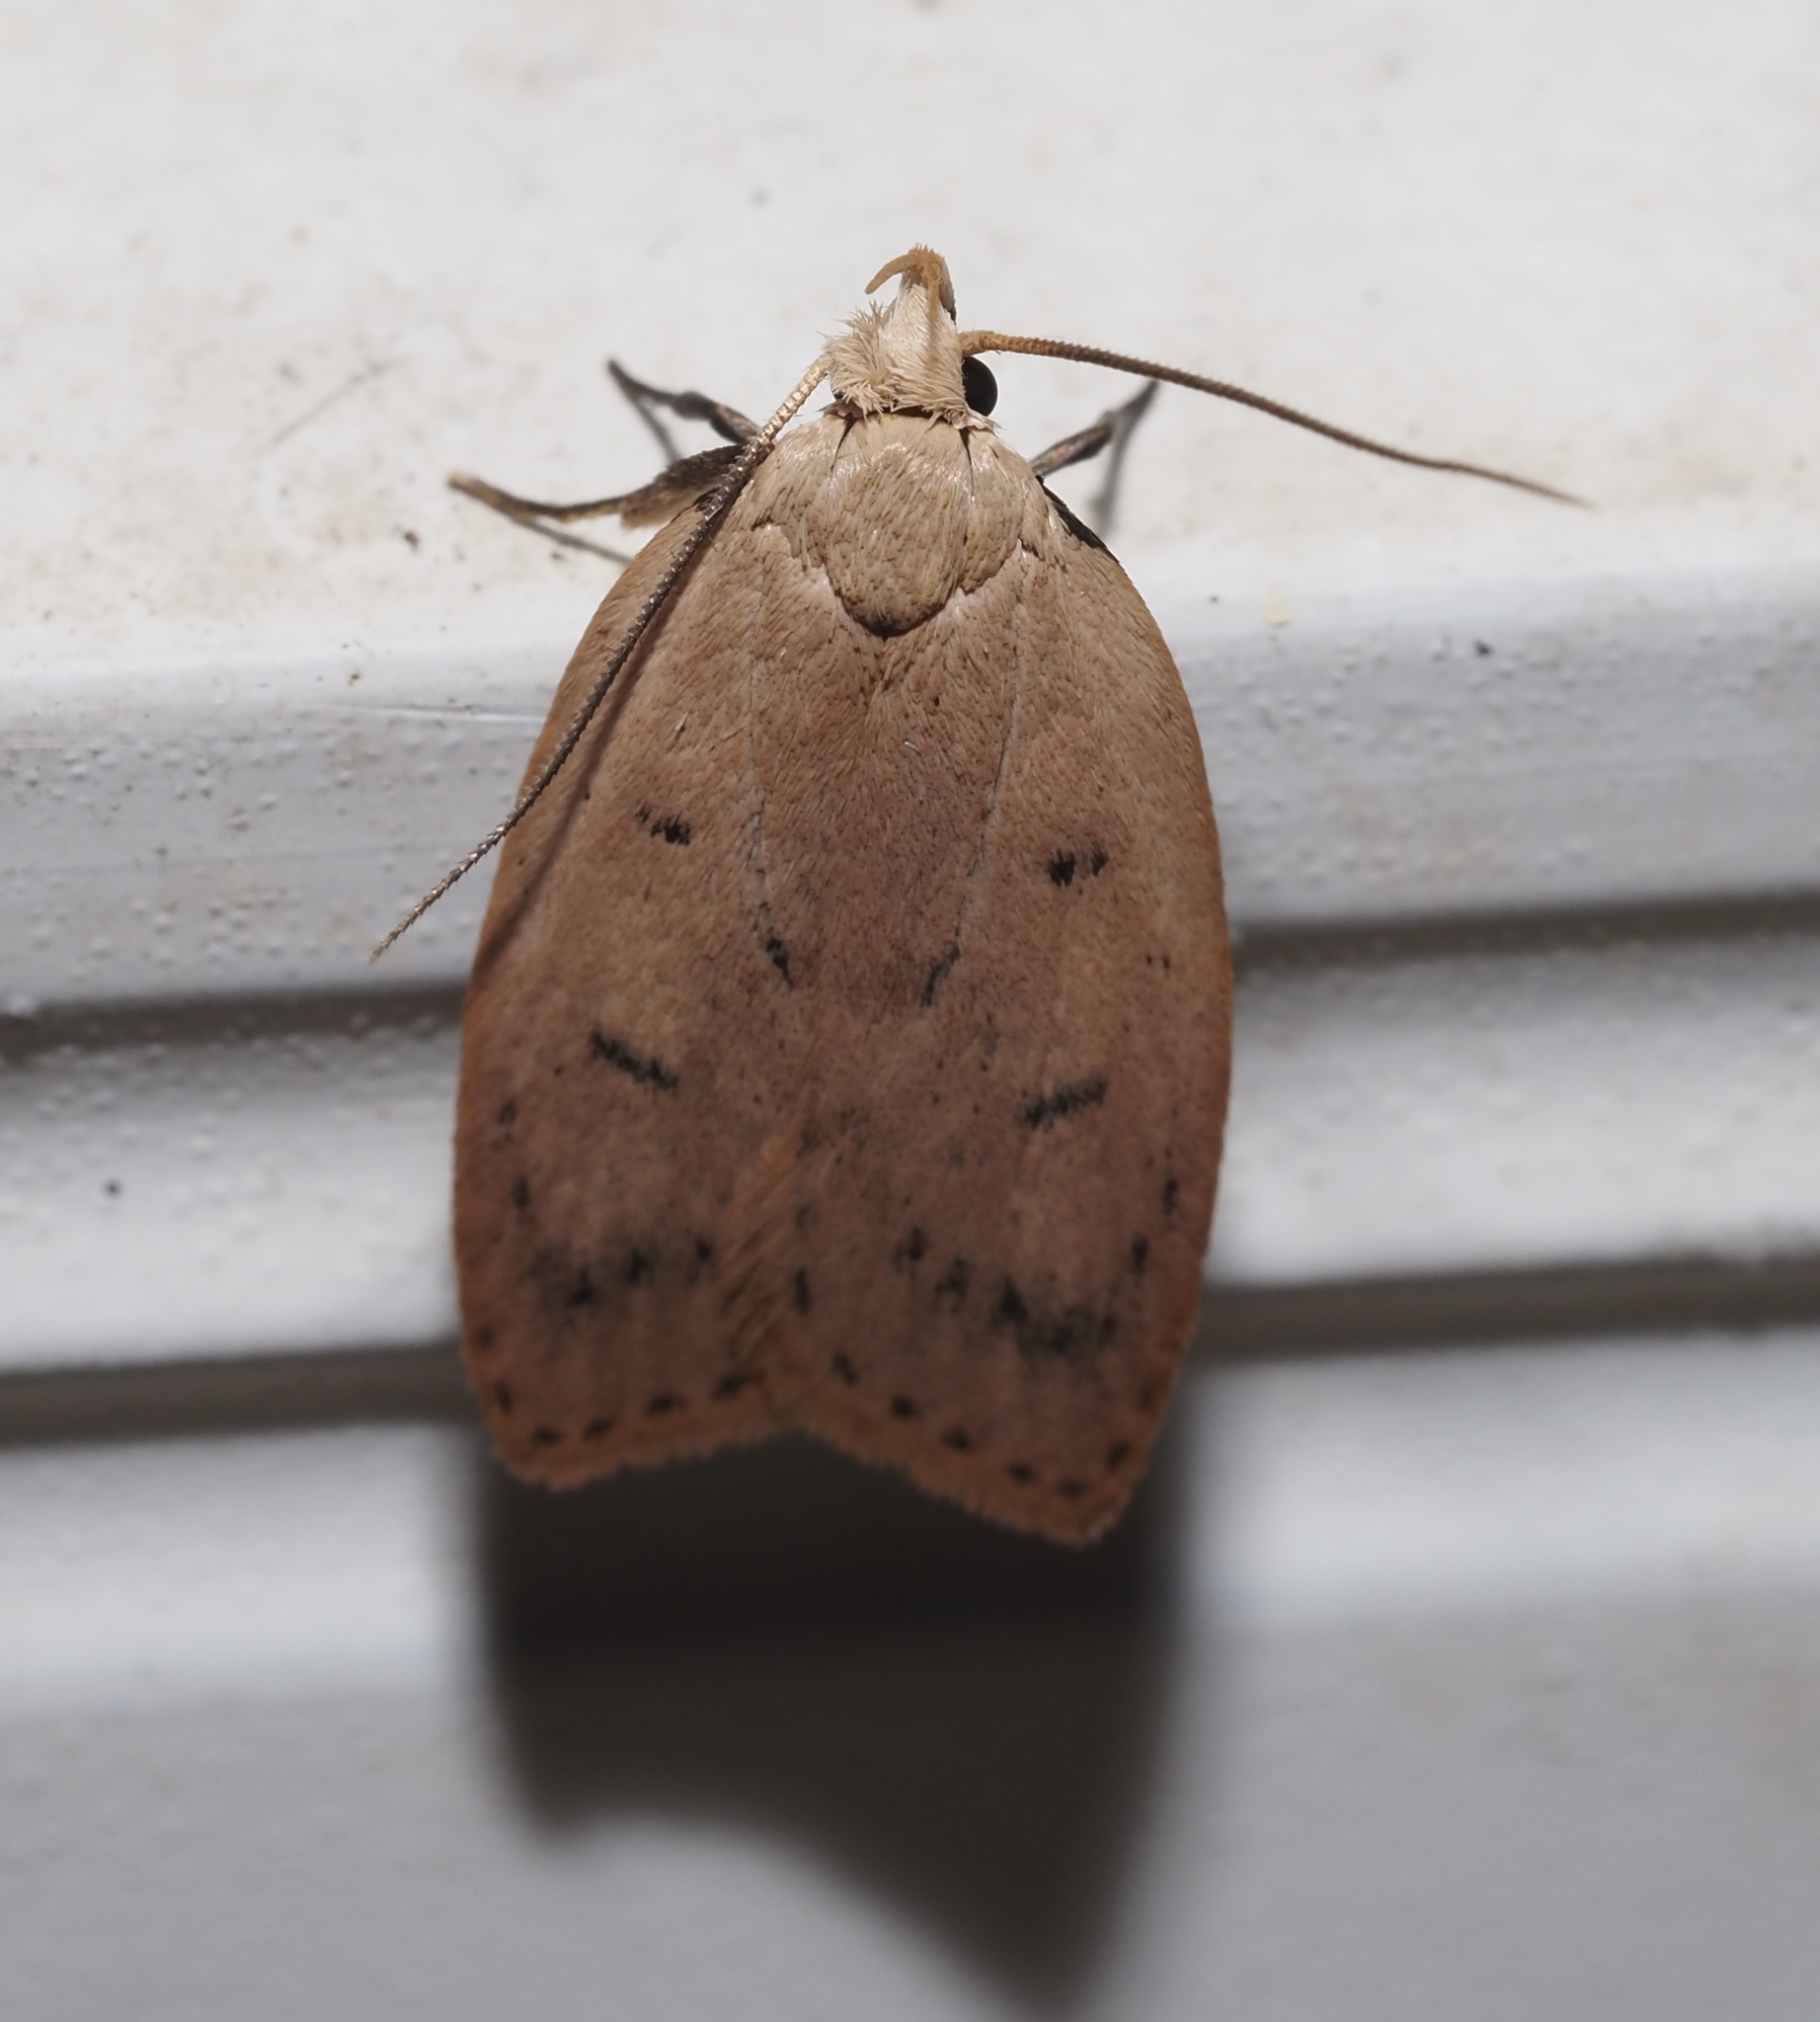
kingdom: Animalia
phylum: Arthropoda
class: Insecta
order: Lepidoptera
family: Peleopodidae
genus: Machimia
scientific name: Machimia tentoriferella
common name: Gold-striped leaftier moth
